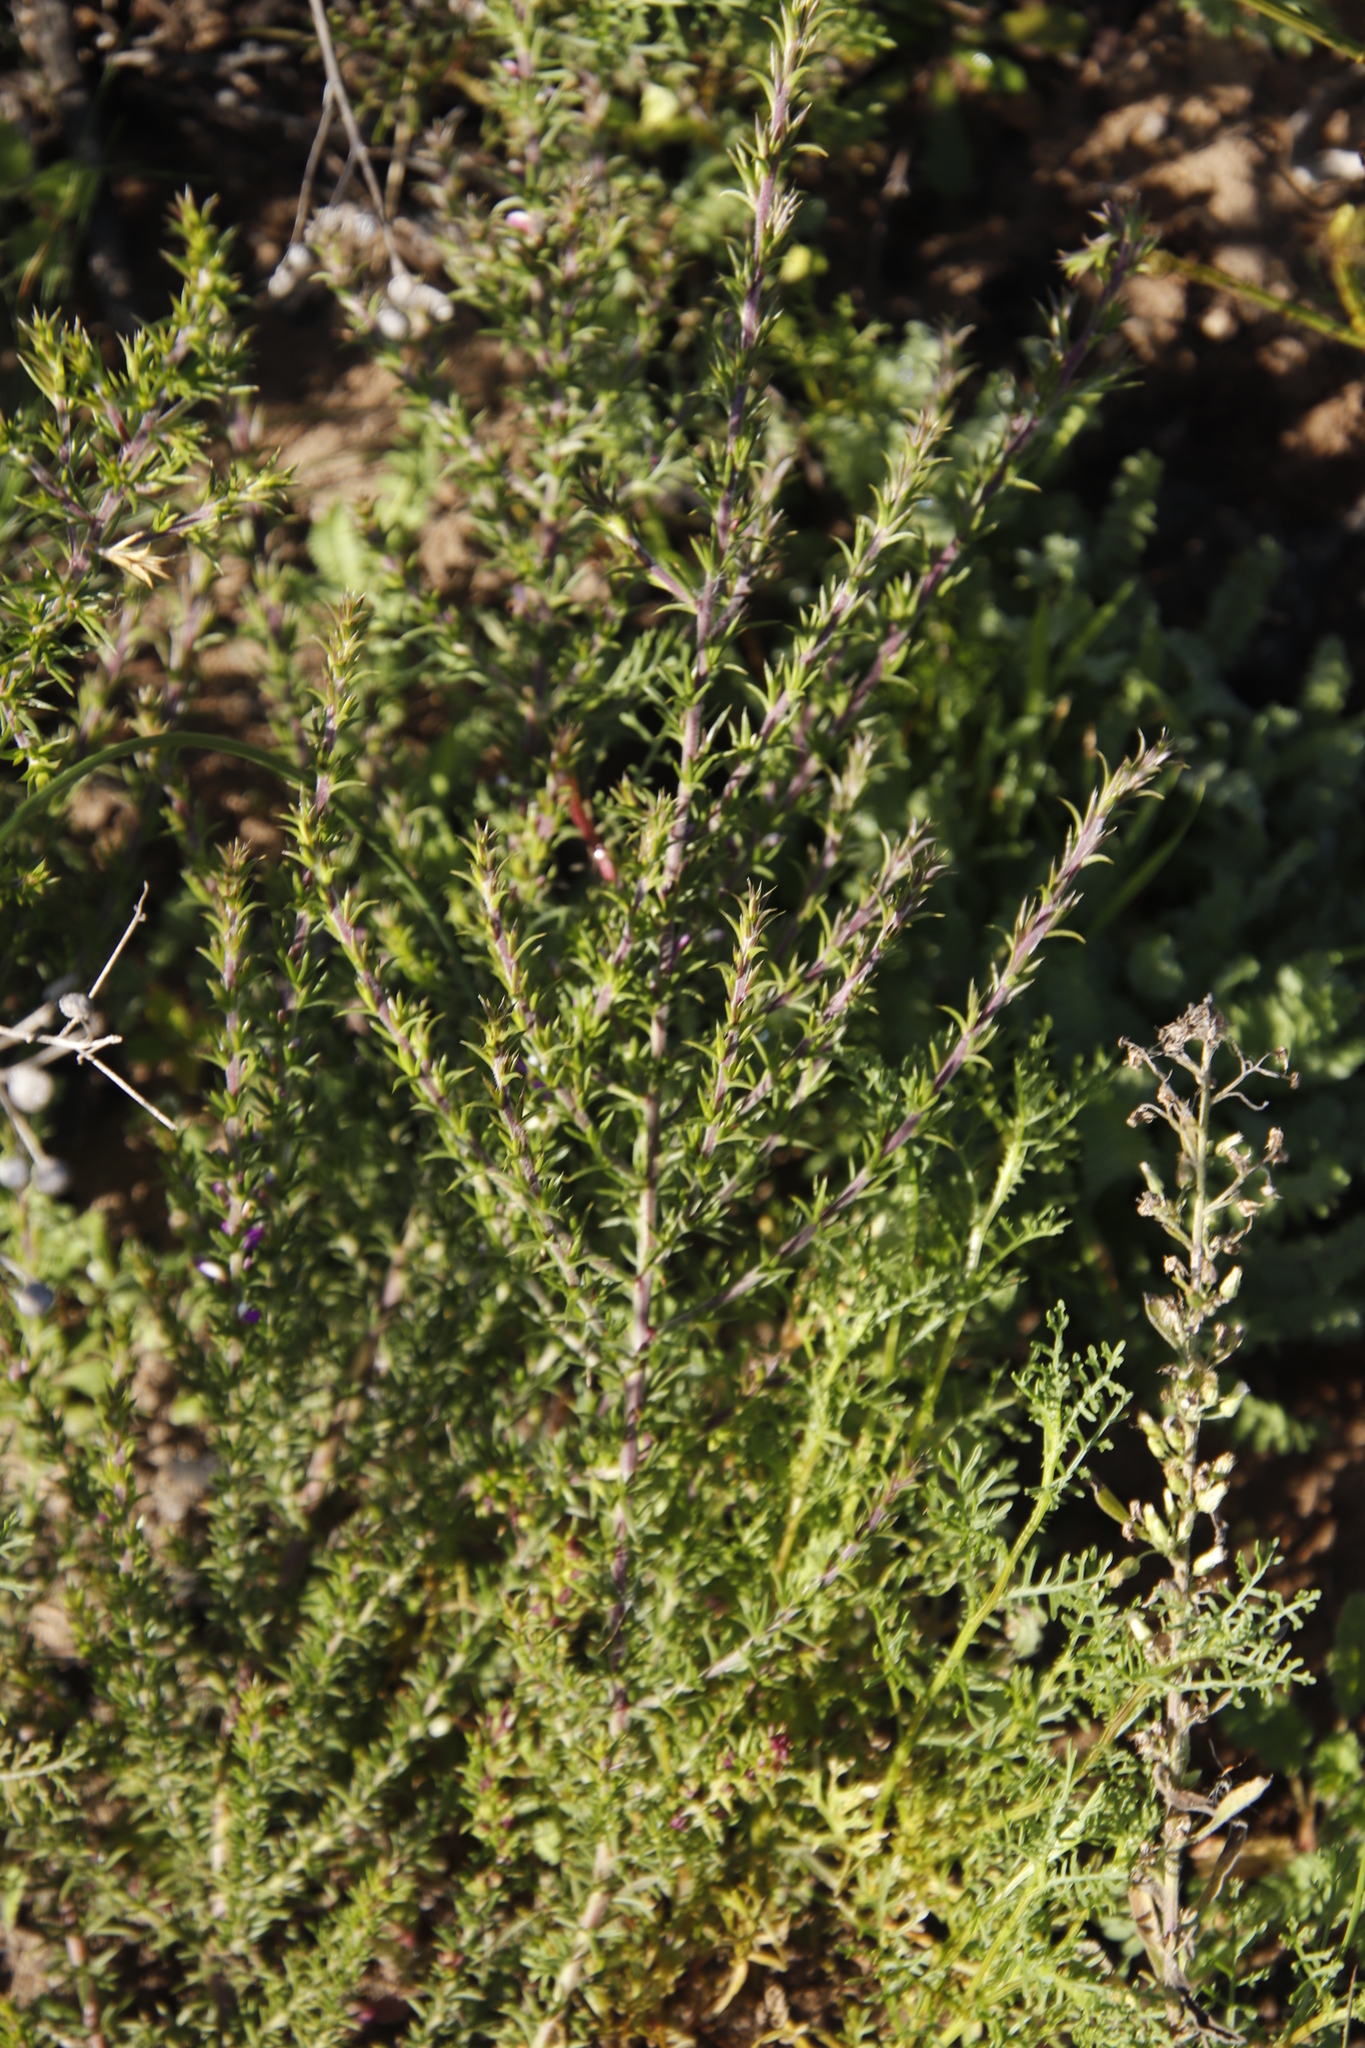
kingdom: Plantae
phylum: Tracheophyta
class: Magnoliopsida
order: Fabales
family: Polygalaceae
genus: Muraltia
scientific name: Muraltia heisteria
